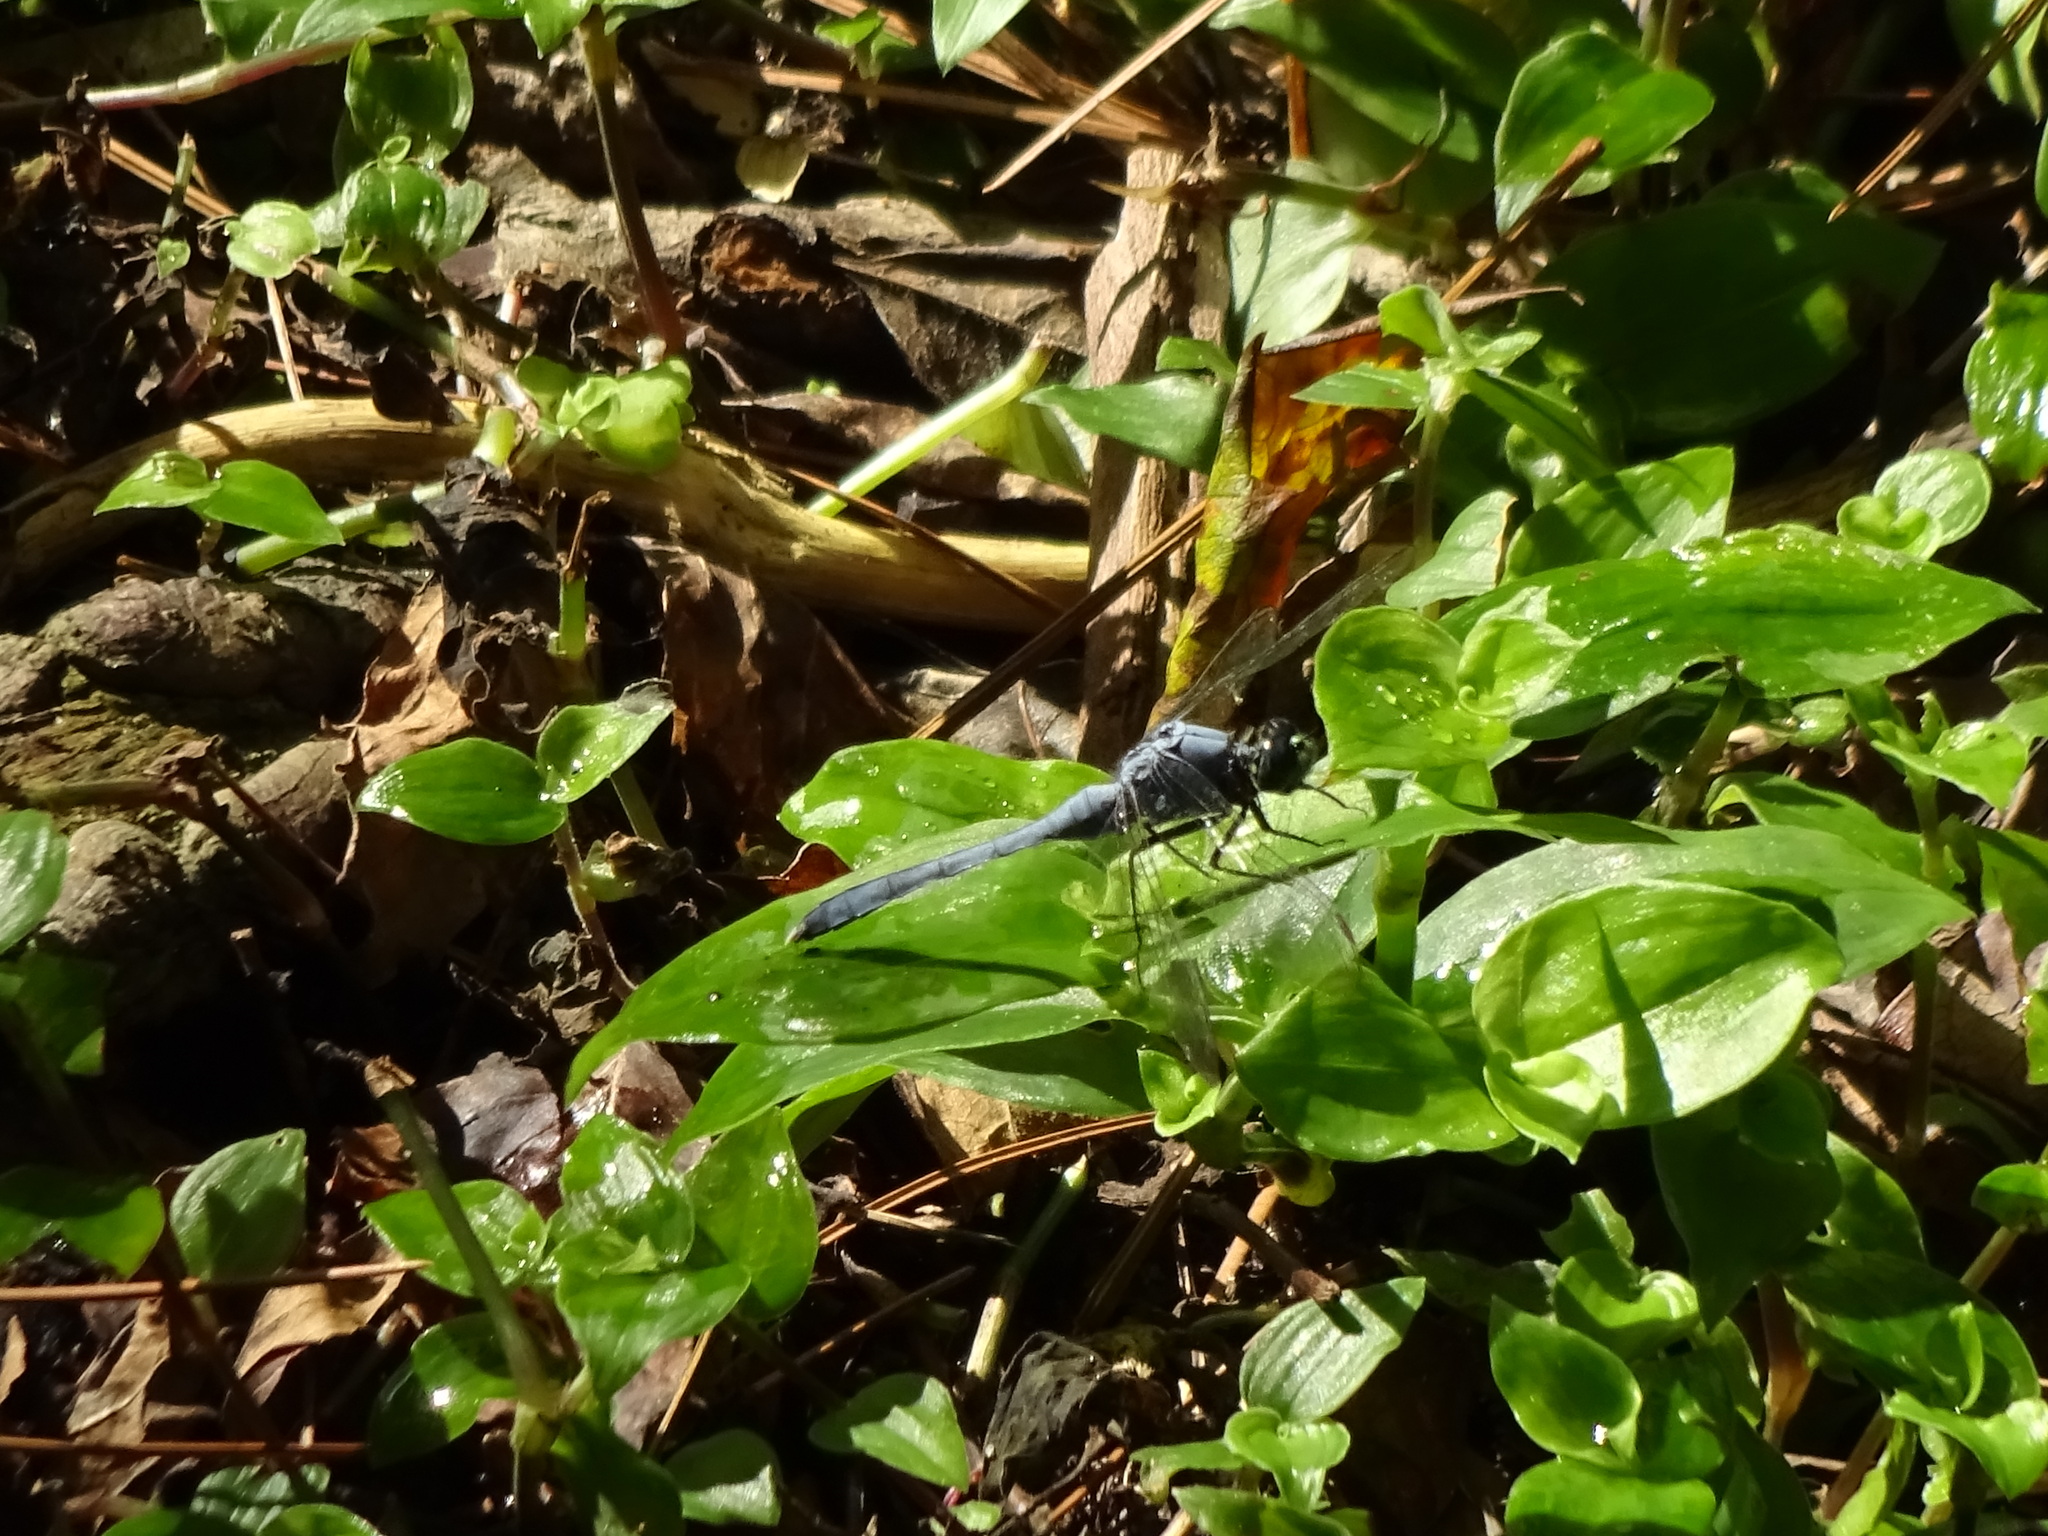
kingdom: Animalia
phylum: Arthropoda
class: Insecta
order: Odonata
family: Libellulidae
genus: Erythemis
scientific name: Erythemis simplicicollis
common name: Eastern pondhawk
